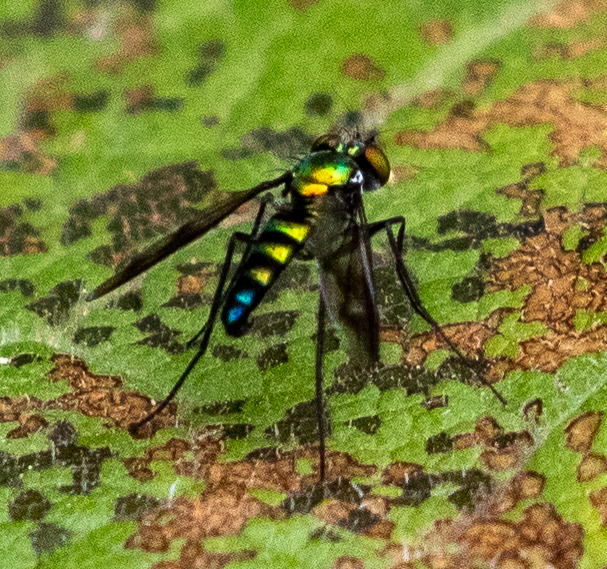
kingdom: Animalia
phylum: Arthropoda
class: Insecta
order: Diptera
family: Dolichopodidae
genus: Condylostylus
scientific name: Condylostylus patibulatus
